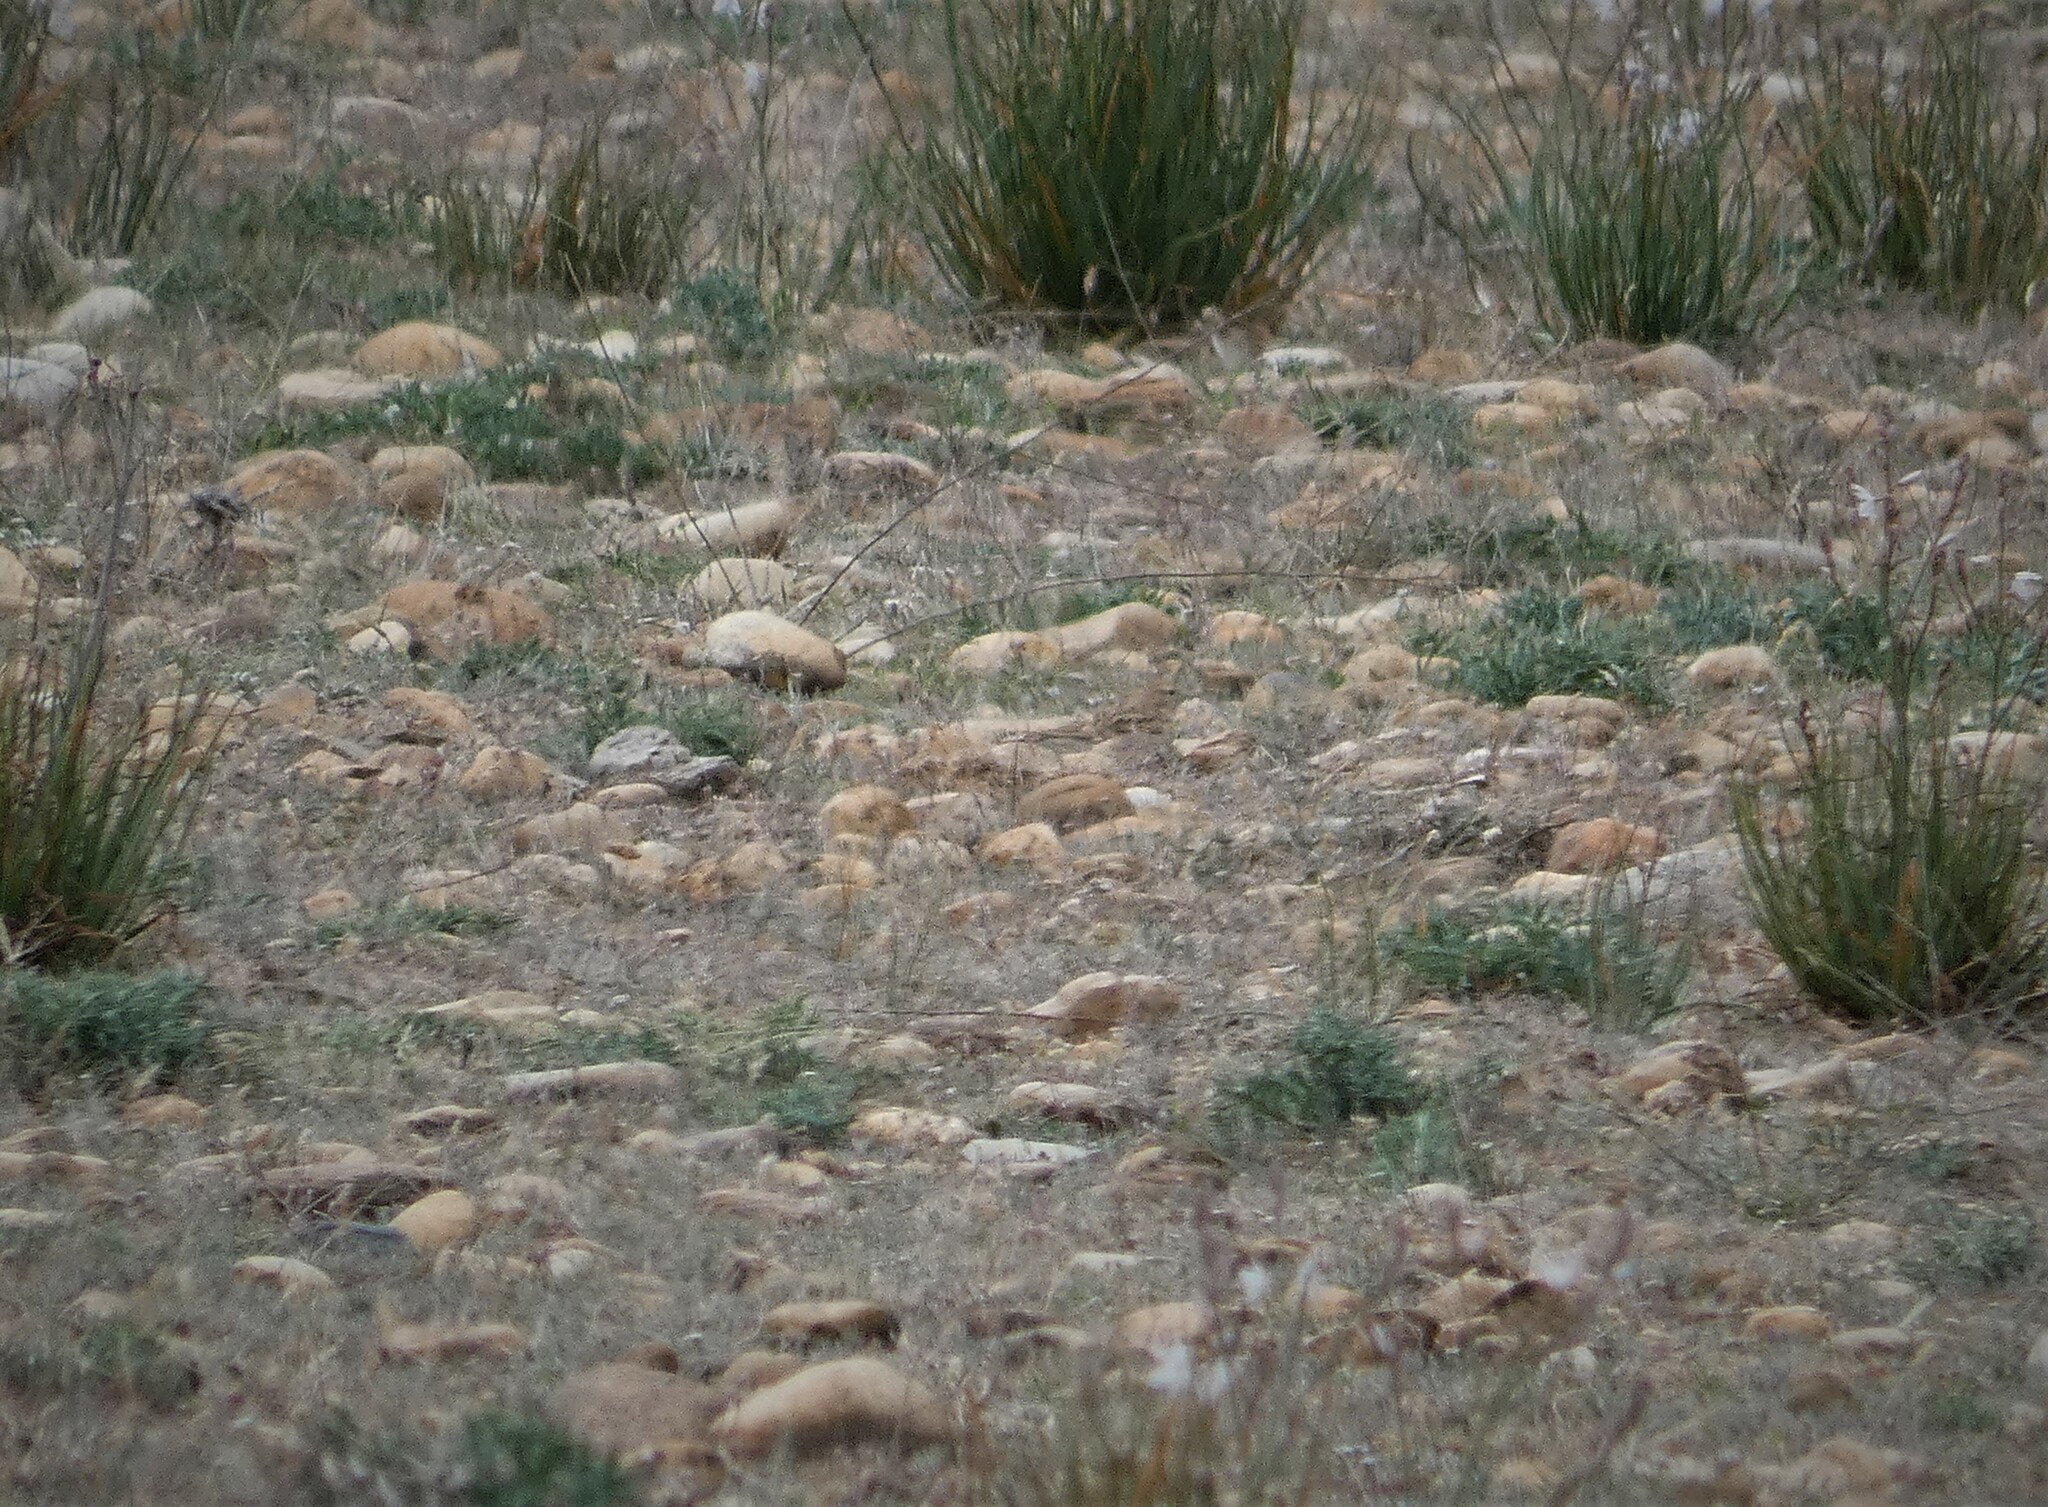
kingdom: Animalia
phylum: Chordata
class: Aves
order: Passeriformes
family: Alaudidae
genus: Calandrella
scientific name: Calandrella brachydactyla
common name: Greater short-toed lark
